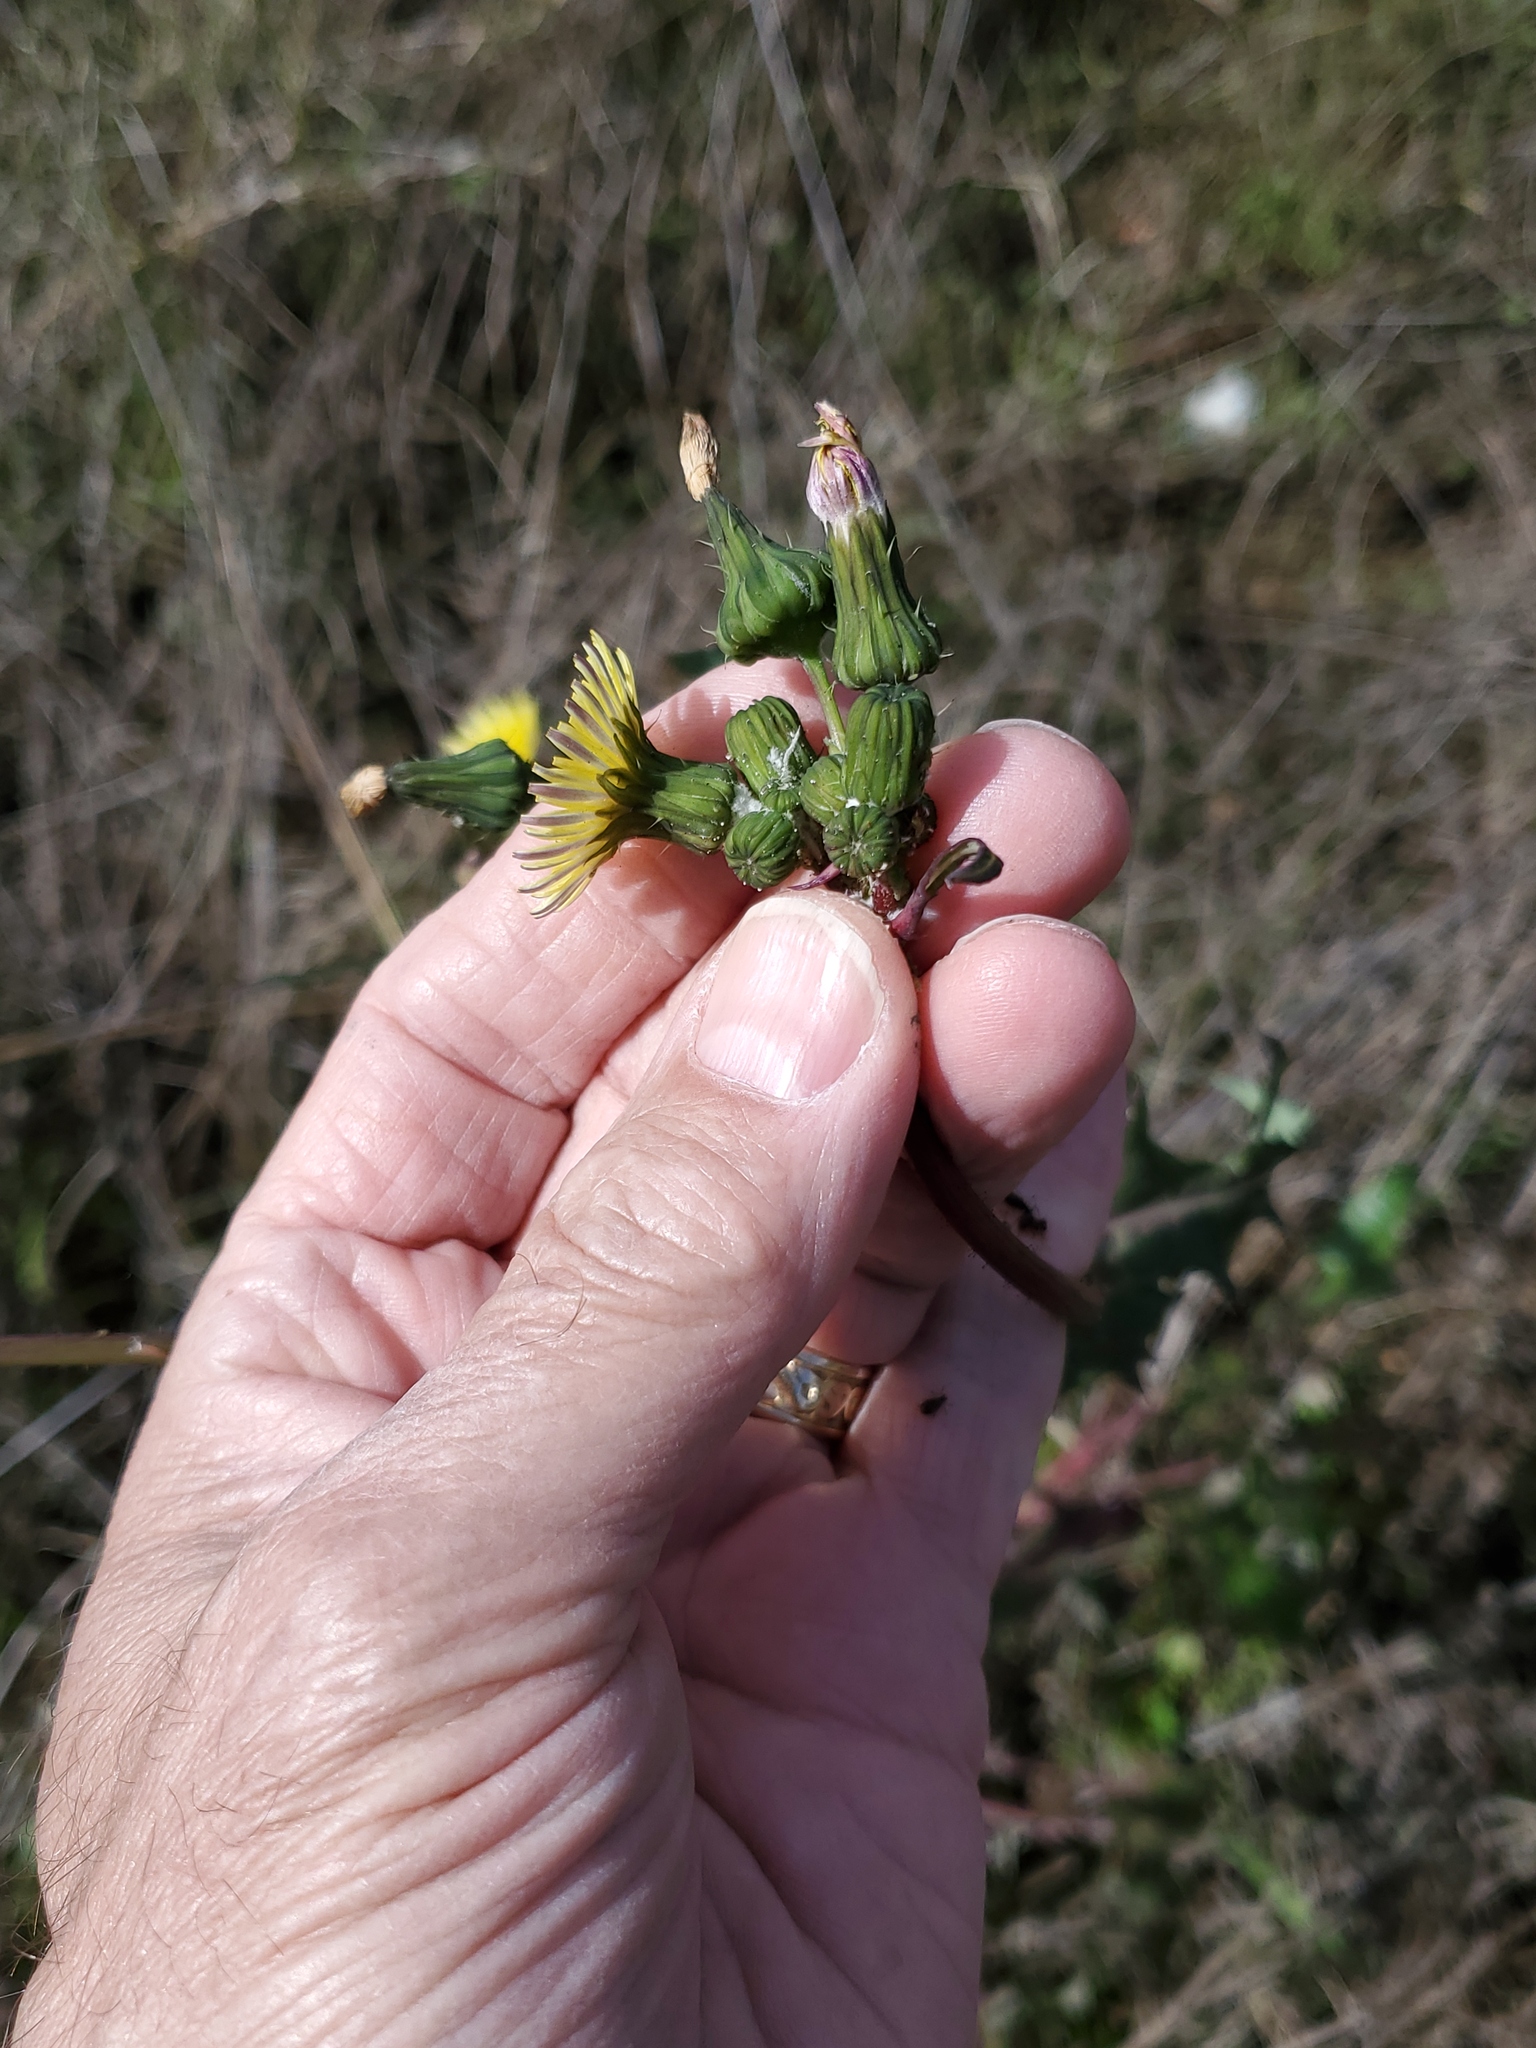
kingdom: Plantae
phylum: Tracheophyta
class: Magnoliopsida
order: Asterales
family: Asteraceae
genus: Sonchus
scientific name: Sonchus oleraceus
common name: Common sowthistle
